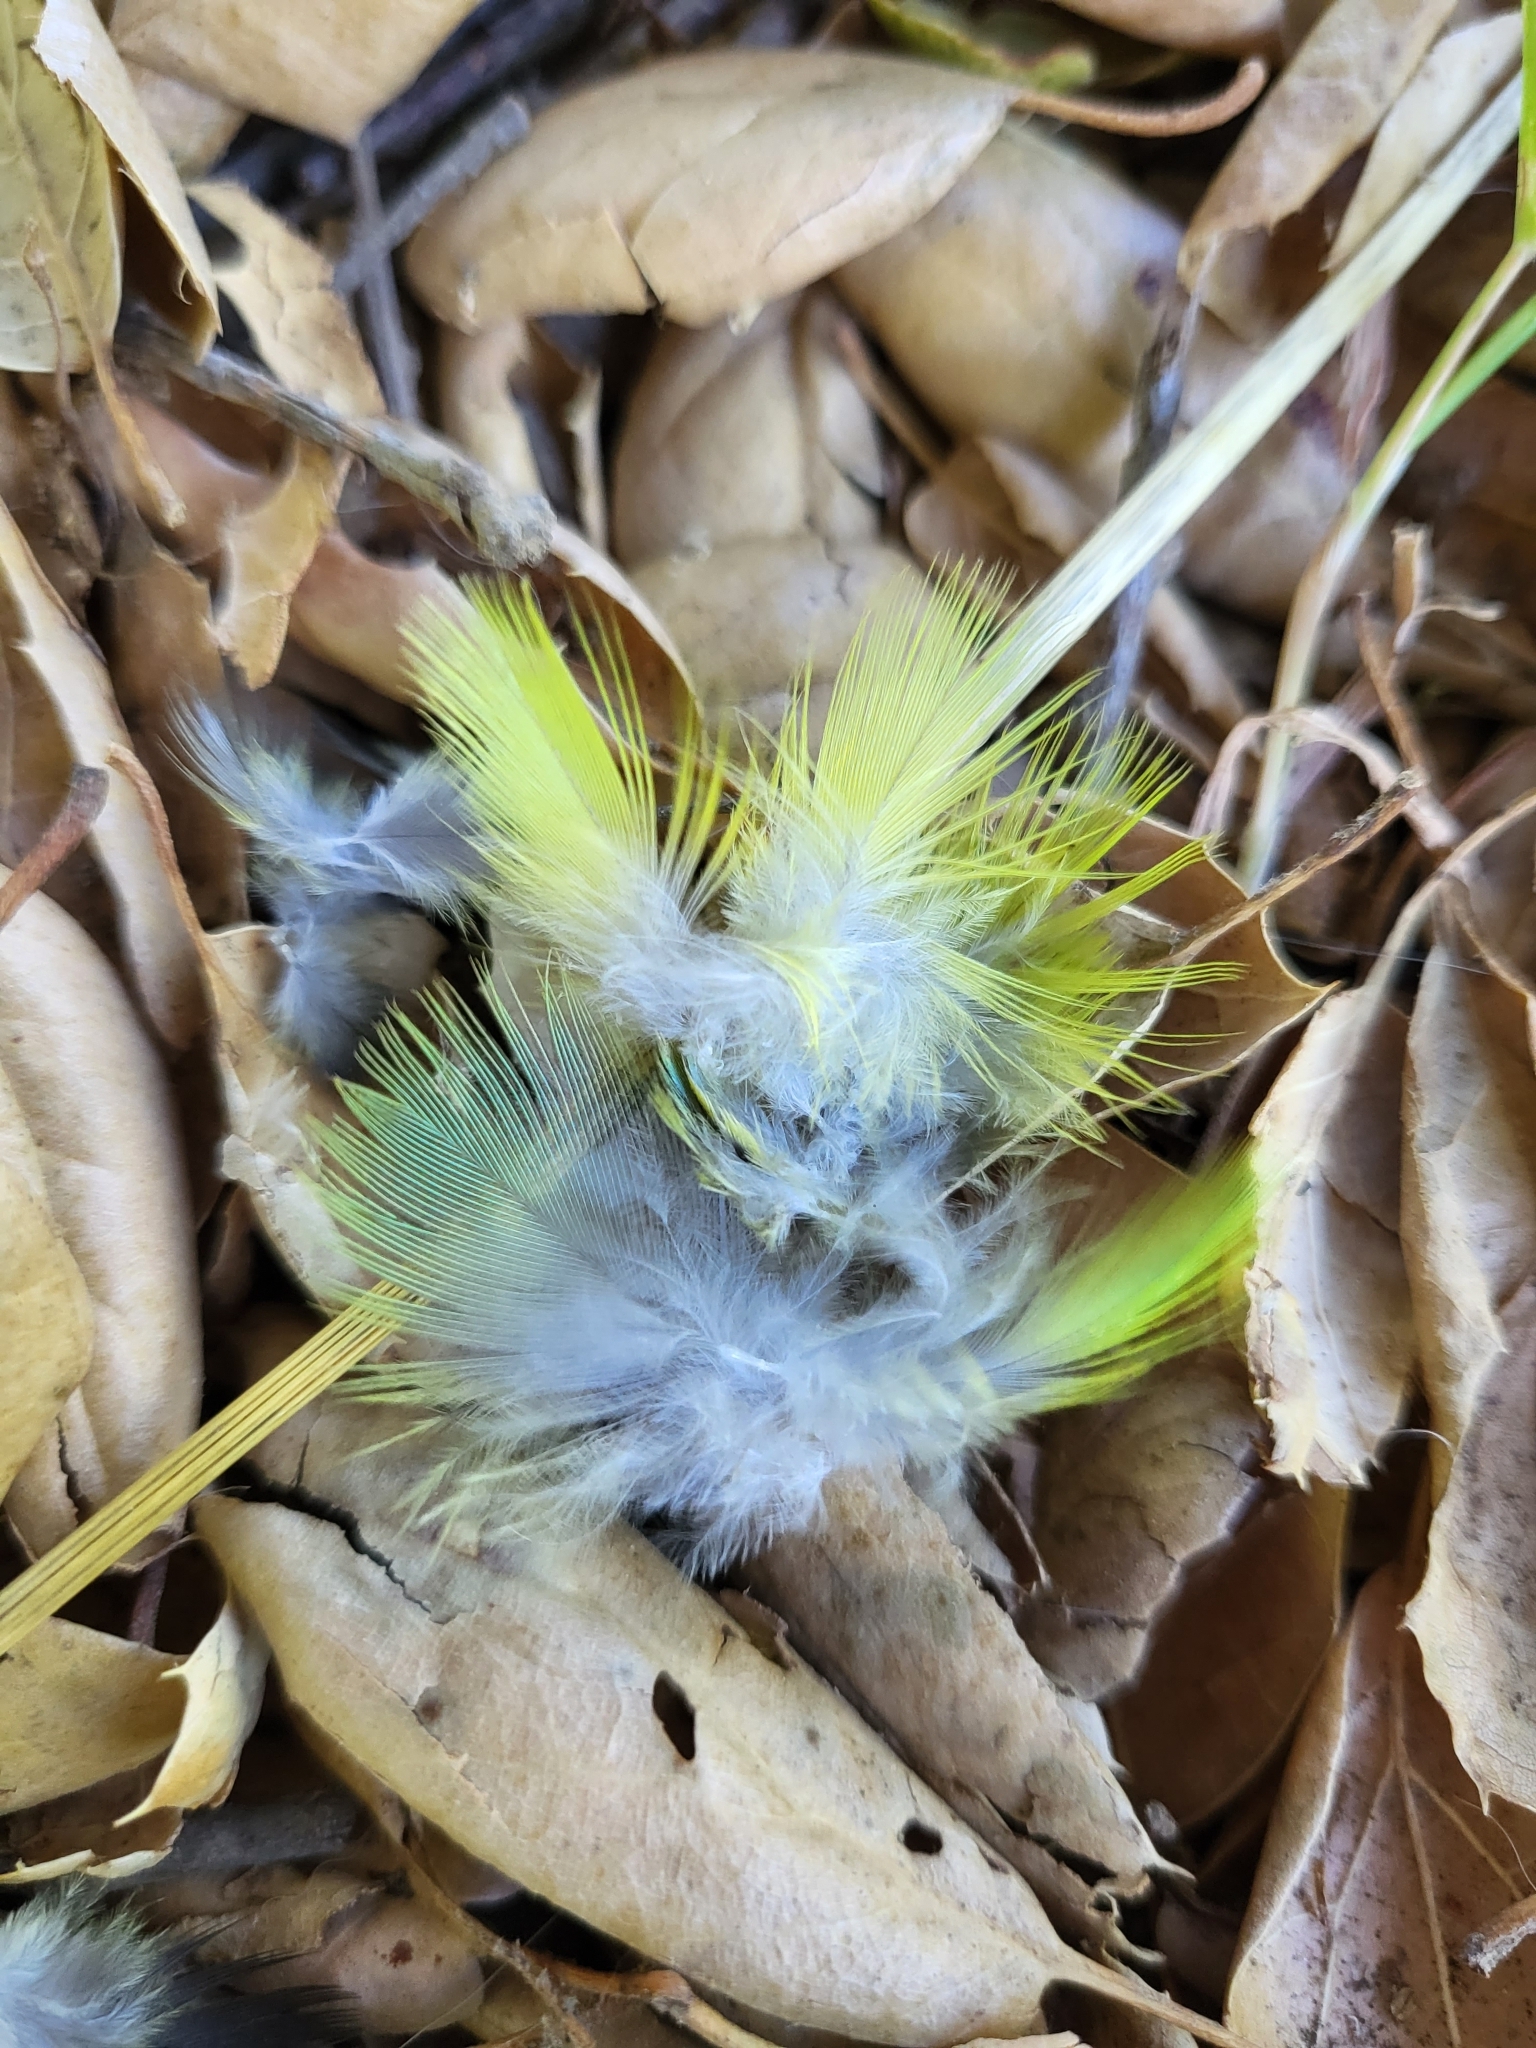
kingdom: Animalia
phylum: Chordata
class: Aves
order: Psittaciformes
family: Psittacidae
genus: Nandayus
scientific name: Nandayus nenday
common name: Nanday parakeet
